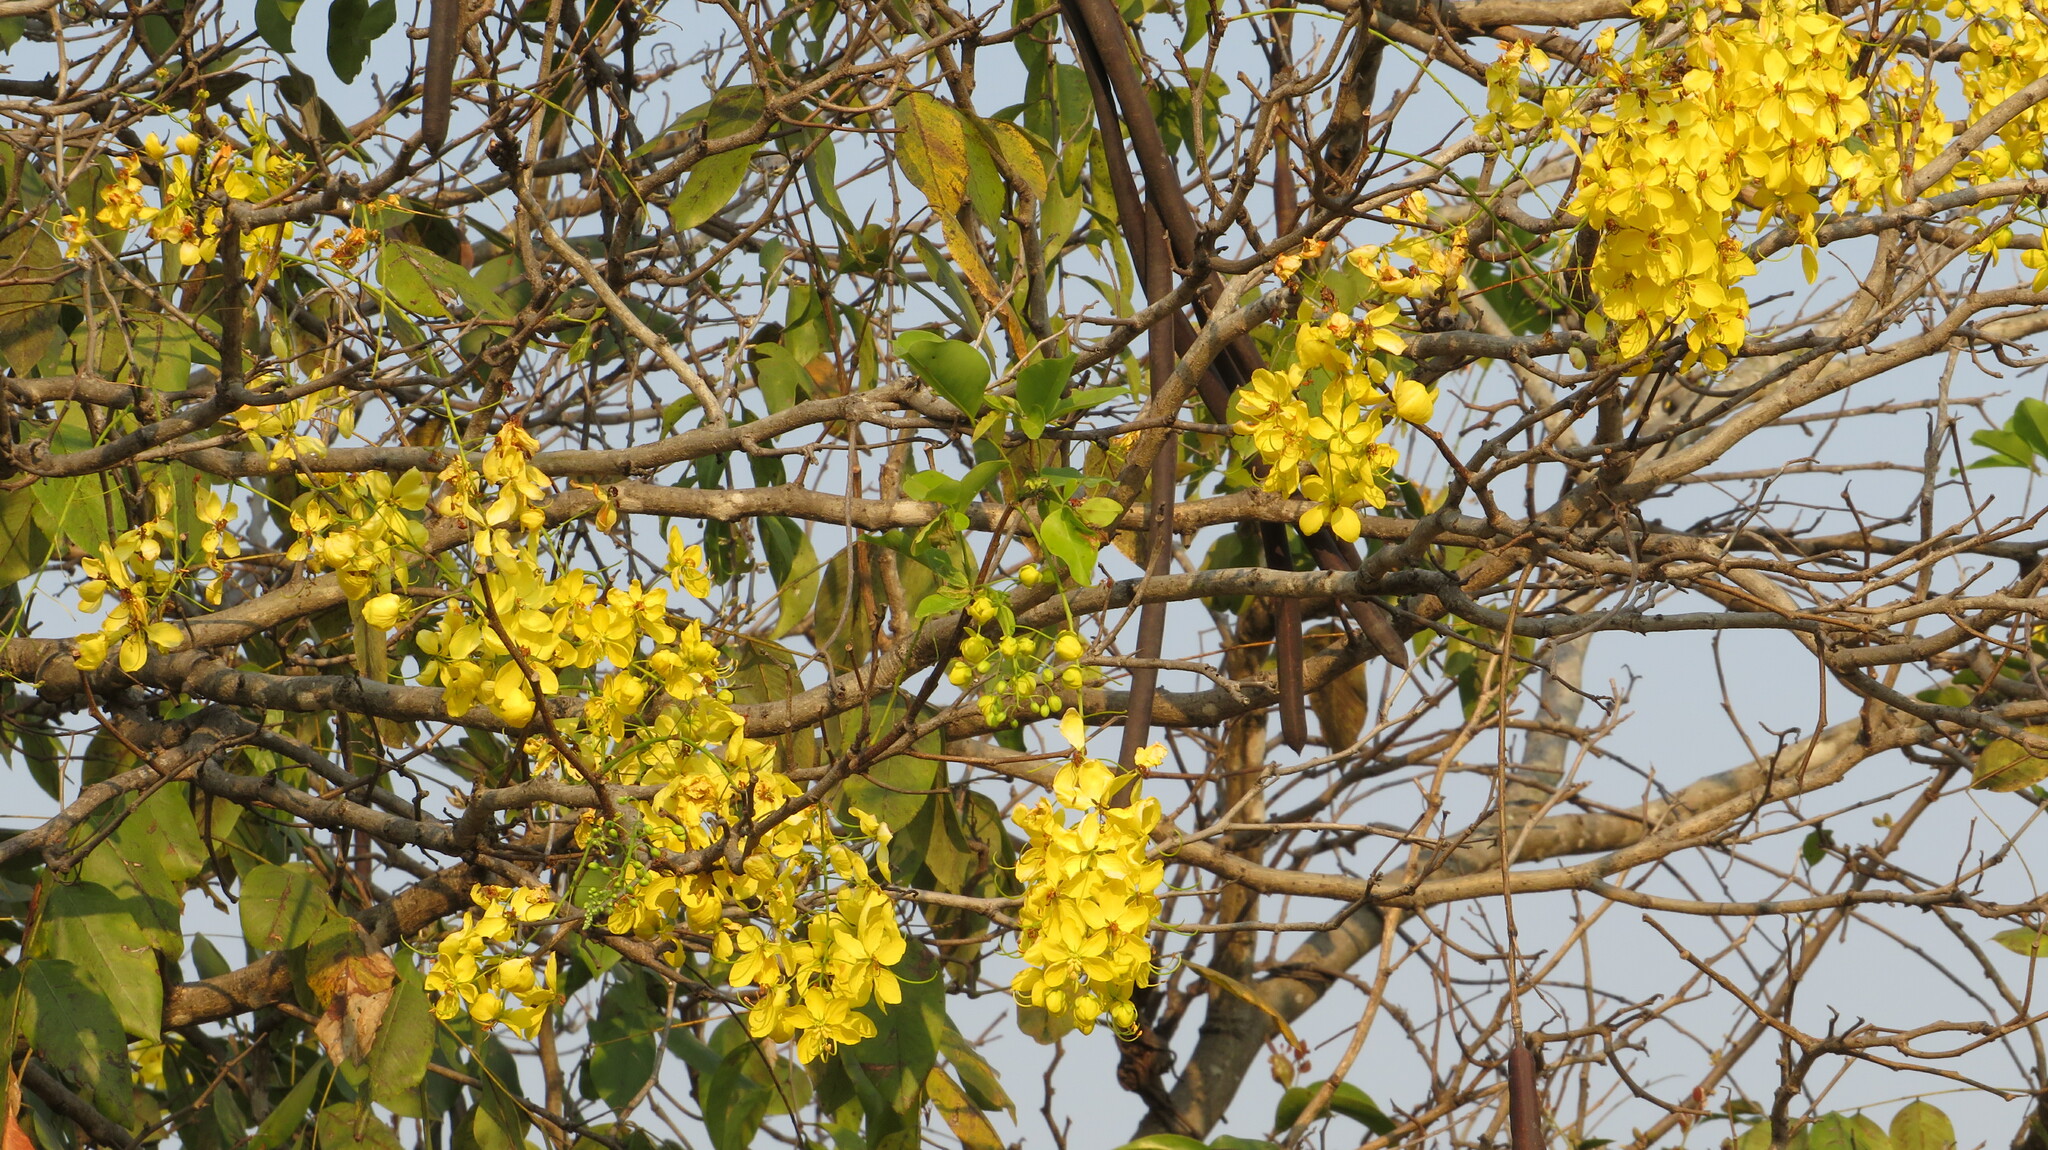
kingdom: Plantae
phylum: Tracheophyta
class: Magnoliopsida
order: Fabales
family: Fabaceae
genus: Cassia
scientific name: Cassia fistula
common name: Golden shower
